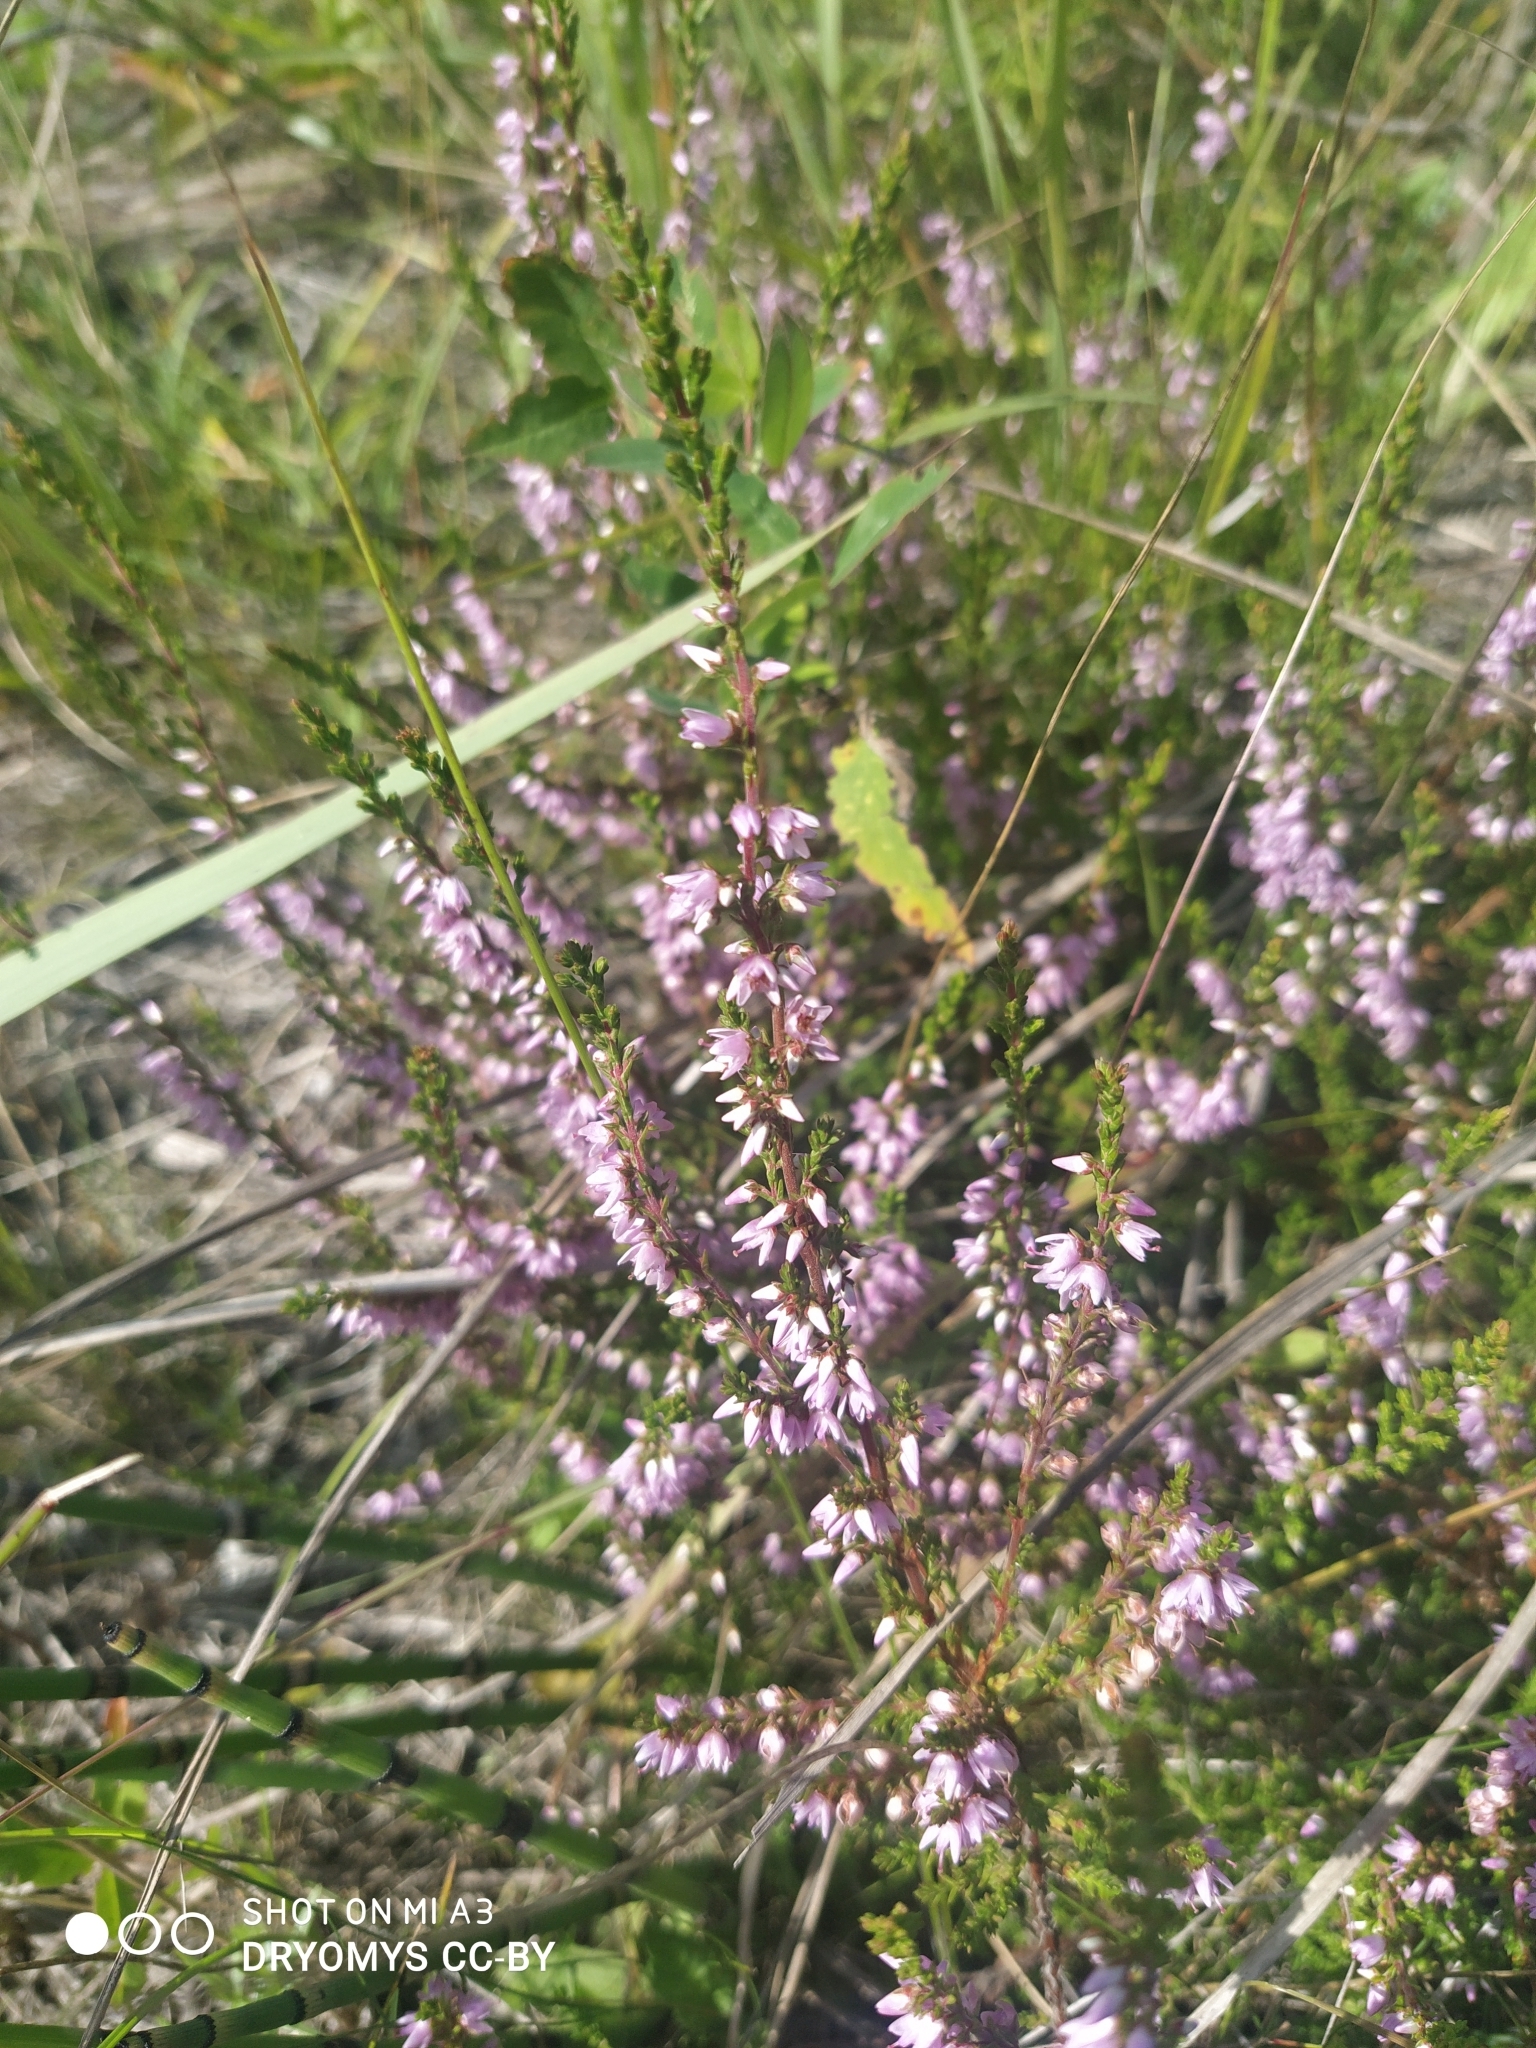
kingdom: Plantae
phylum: Tracheophyta
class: Magnoliopsida
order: Ericales
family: Ericaceae
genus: Calluna
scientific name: Calluna vulgaris
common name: Heather
